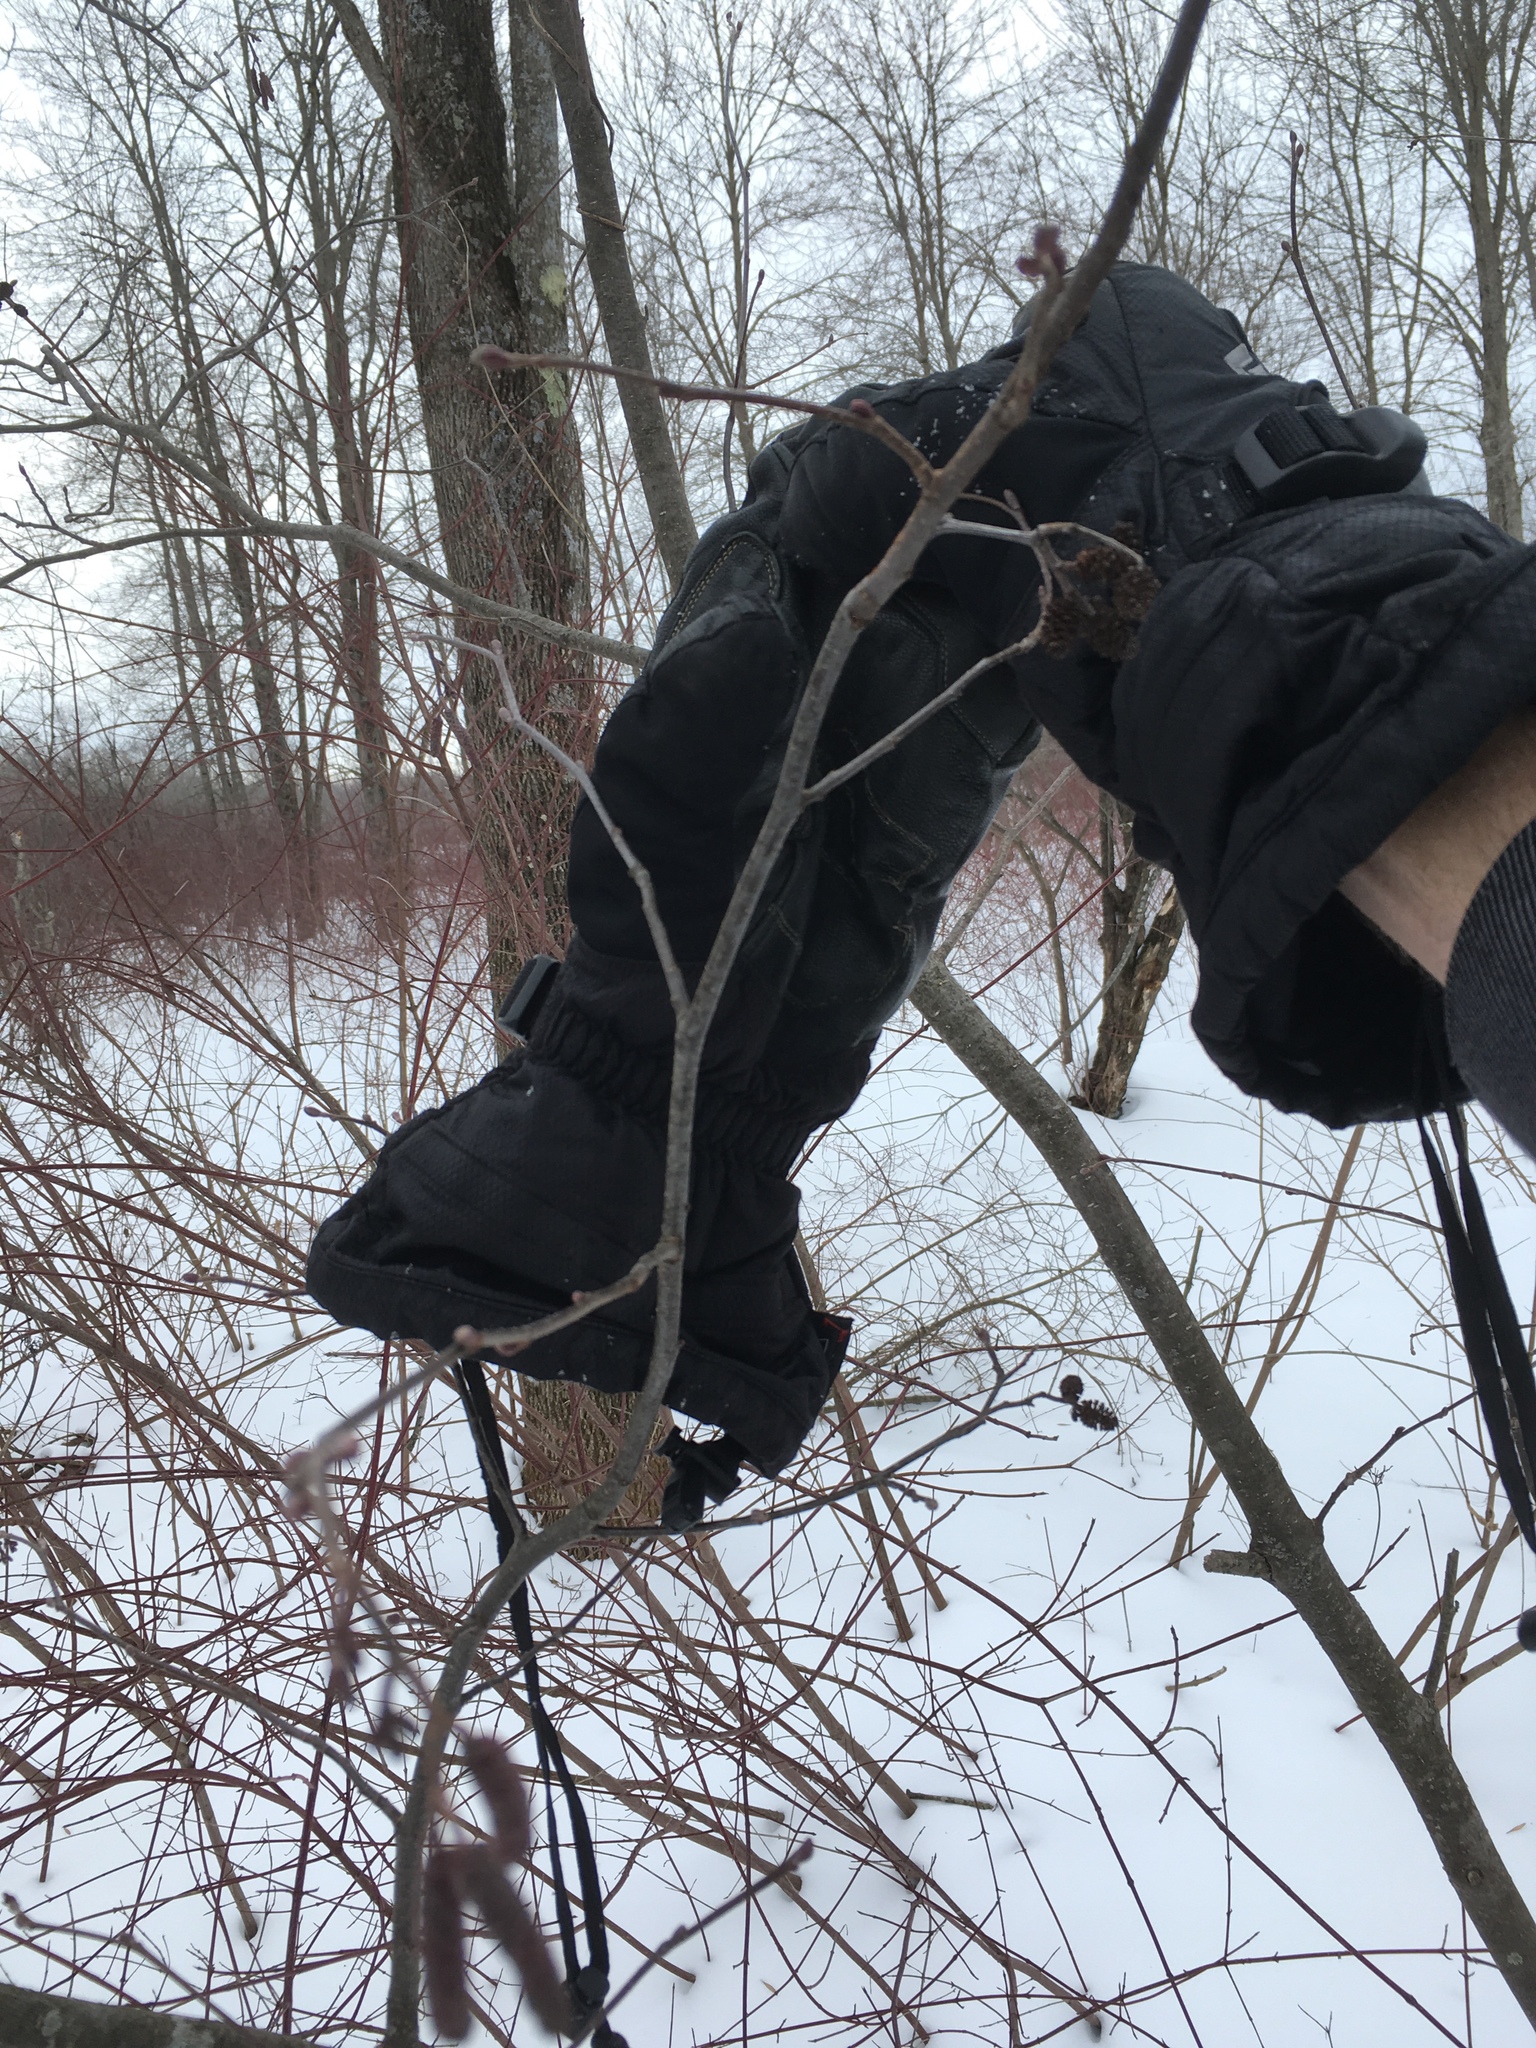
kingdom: Plantae
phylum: Tracheophyta
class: Magnoliopsida
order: Fagales
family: Betulaceae
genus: Alnus
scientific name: Alnus incana
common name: Grey alder
